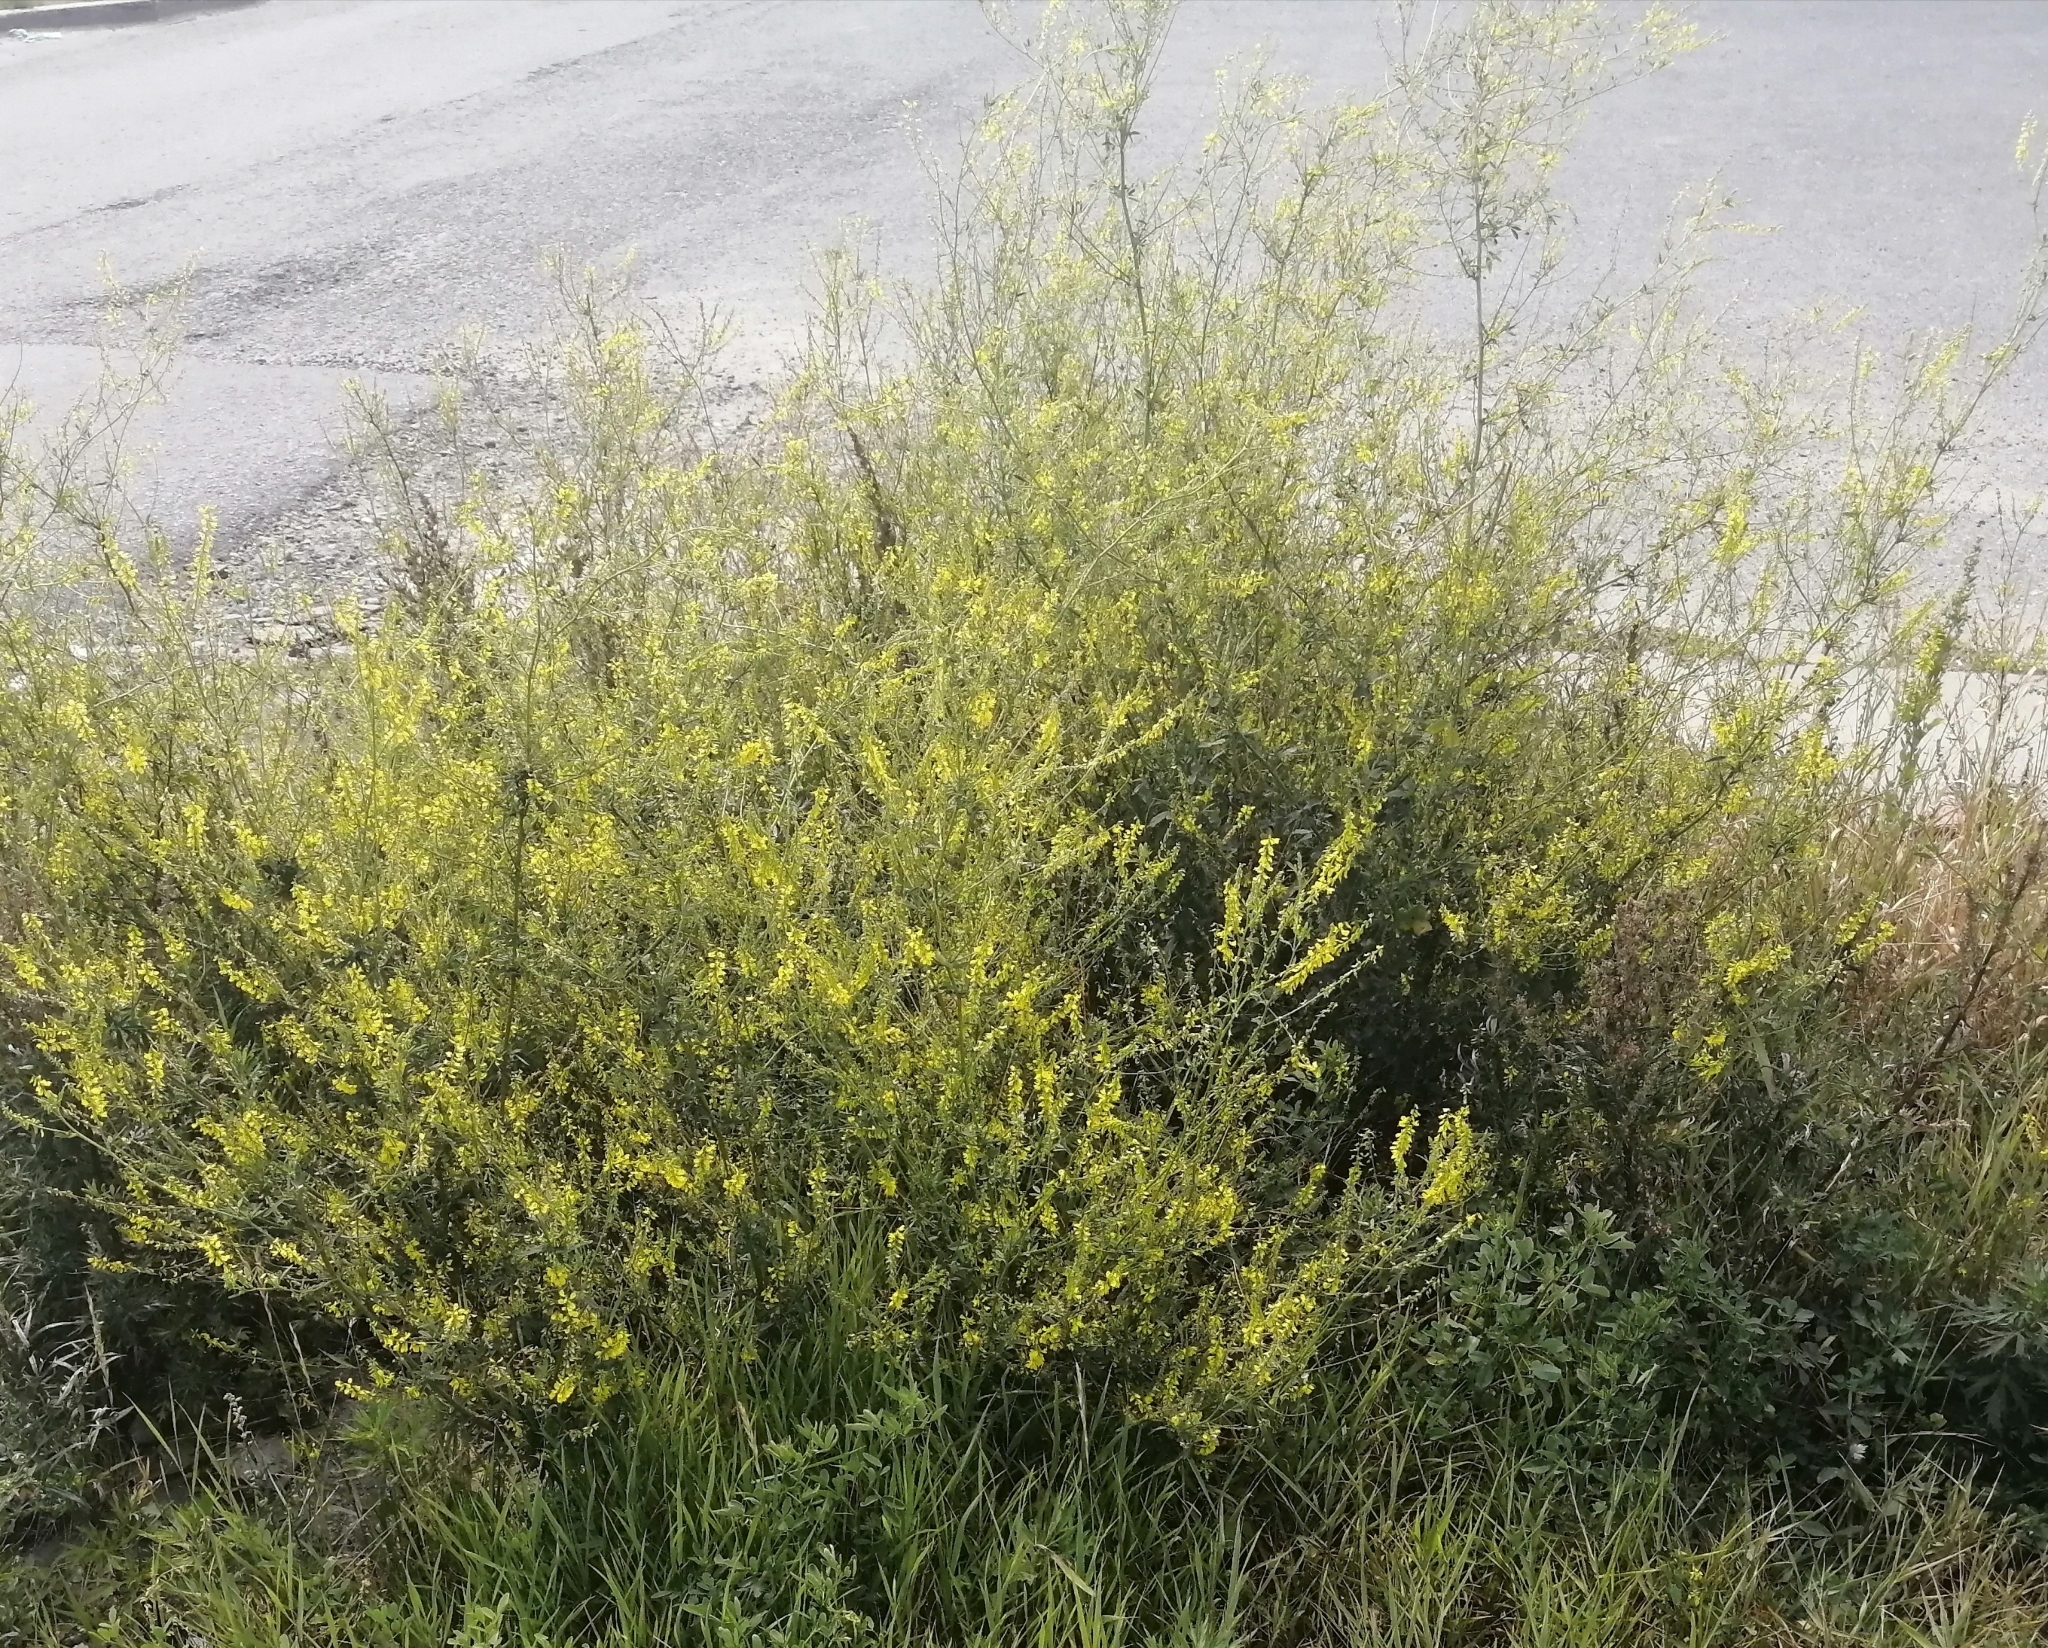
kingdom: Plantae
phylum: Tracheophyta
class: Magnoliopsida
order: Fabales
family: Fabaceae
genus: Melilotus
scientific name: Melilotus officinalis
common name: Sweetclover
